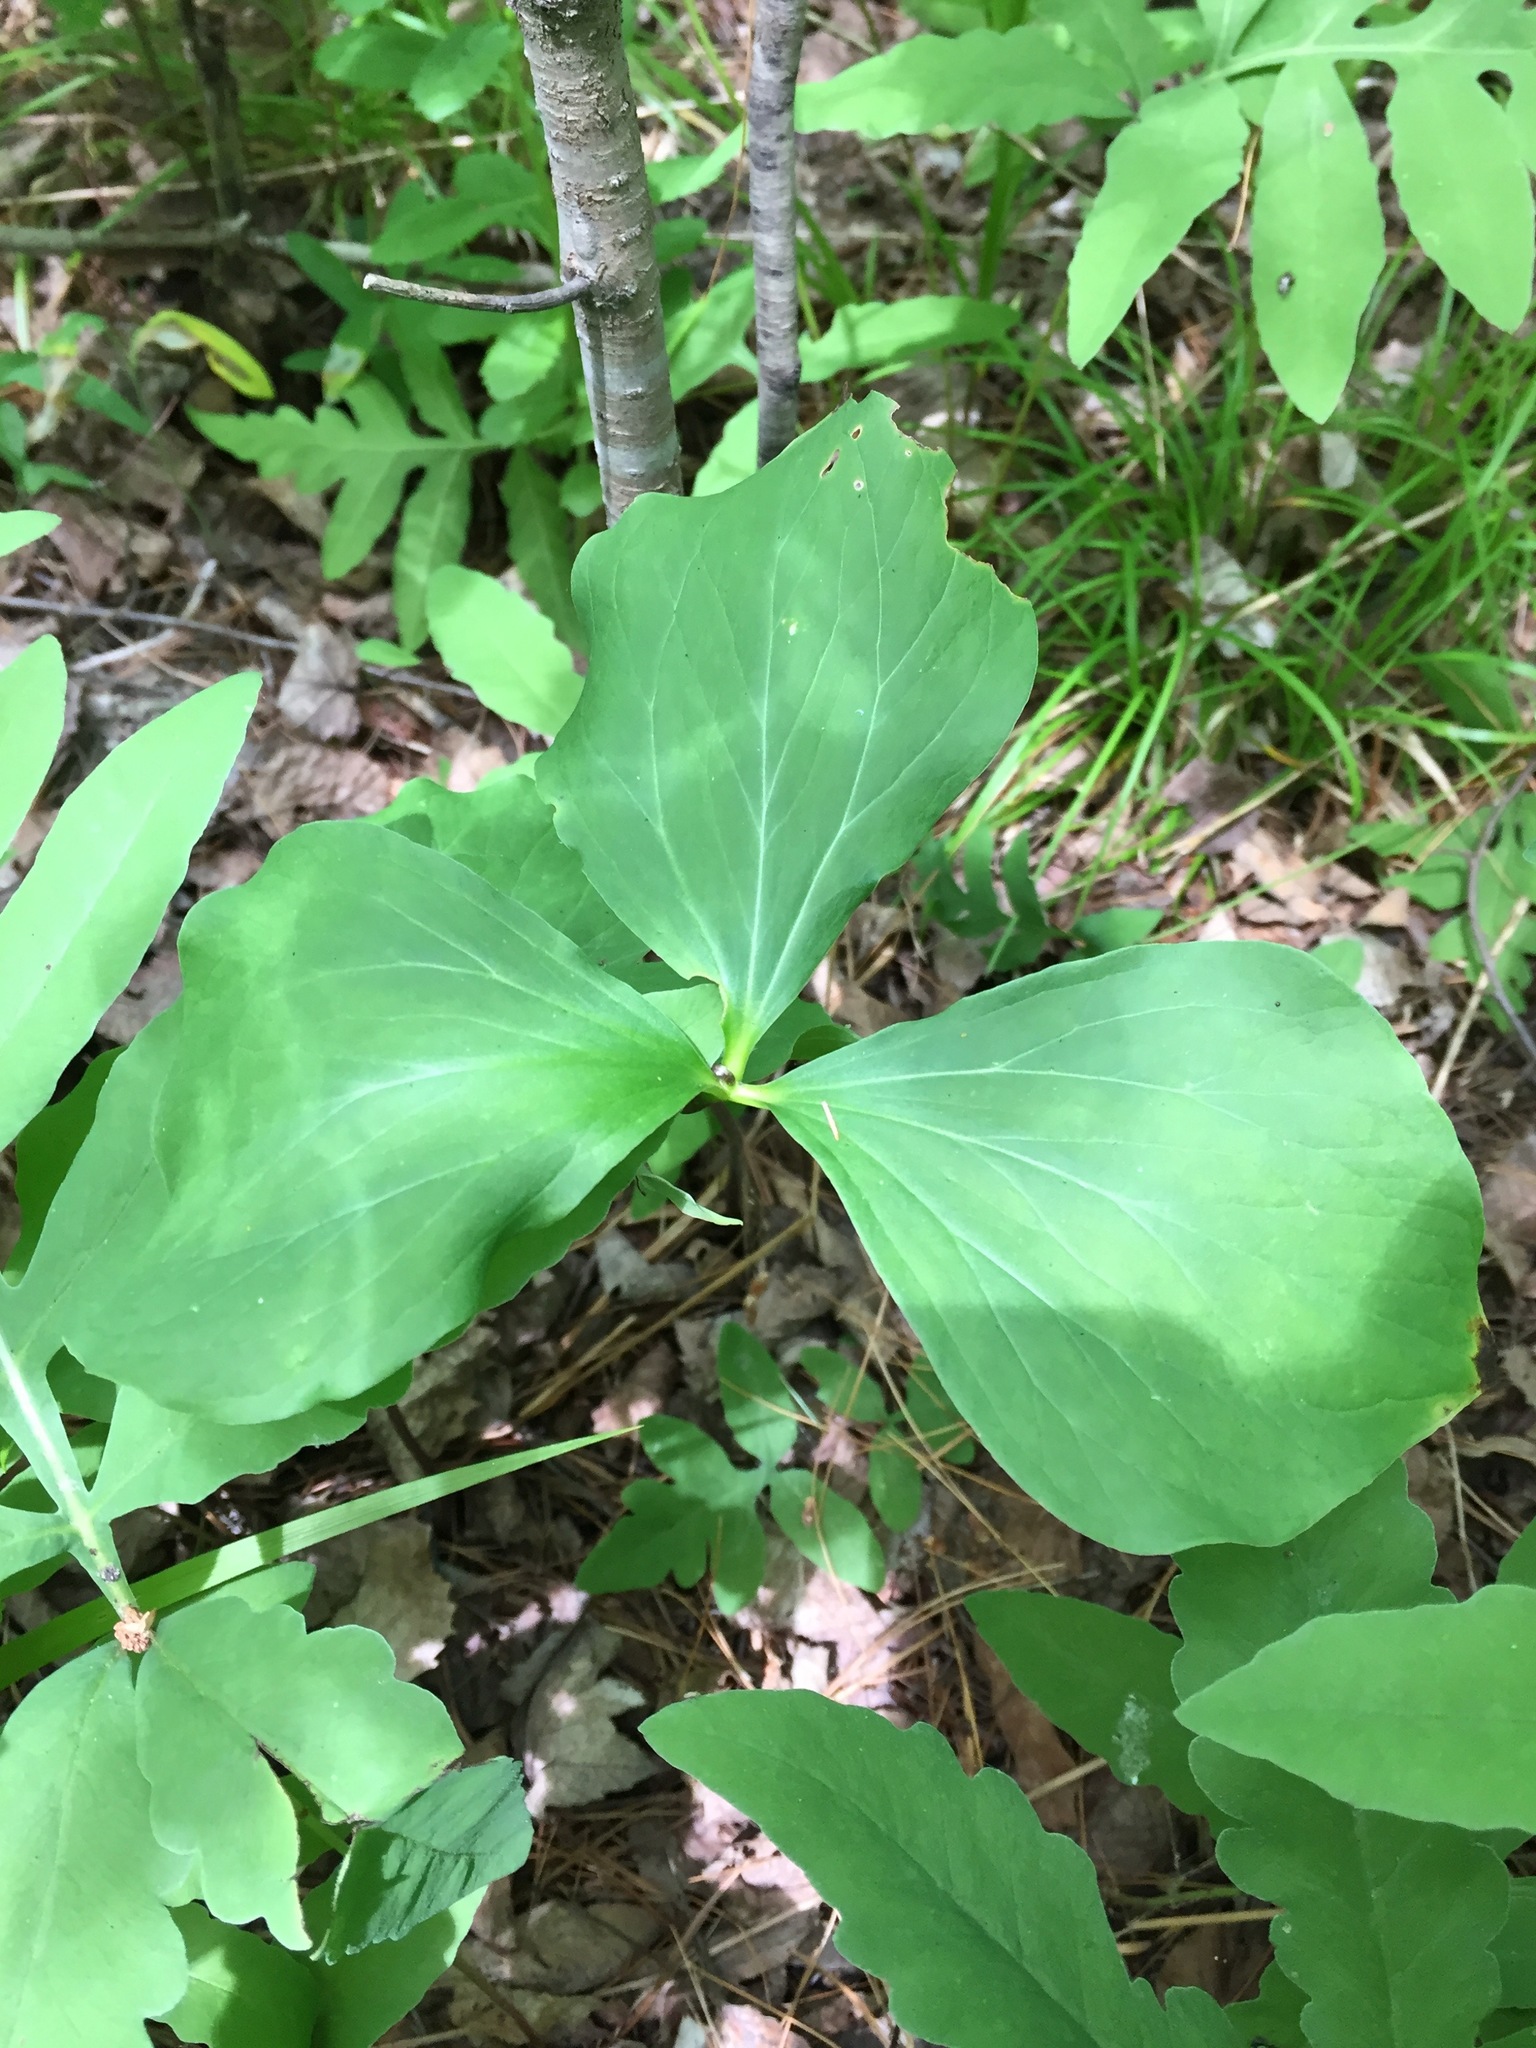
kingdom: Plantae
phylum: Tracheophyta
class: Liliopsida
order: Liliales
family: Melanthiaceae
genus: Trillium
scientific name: Trillium cernuum
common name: Nodding trillium
